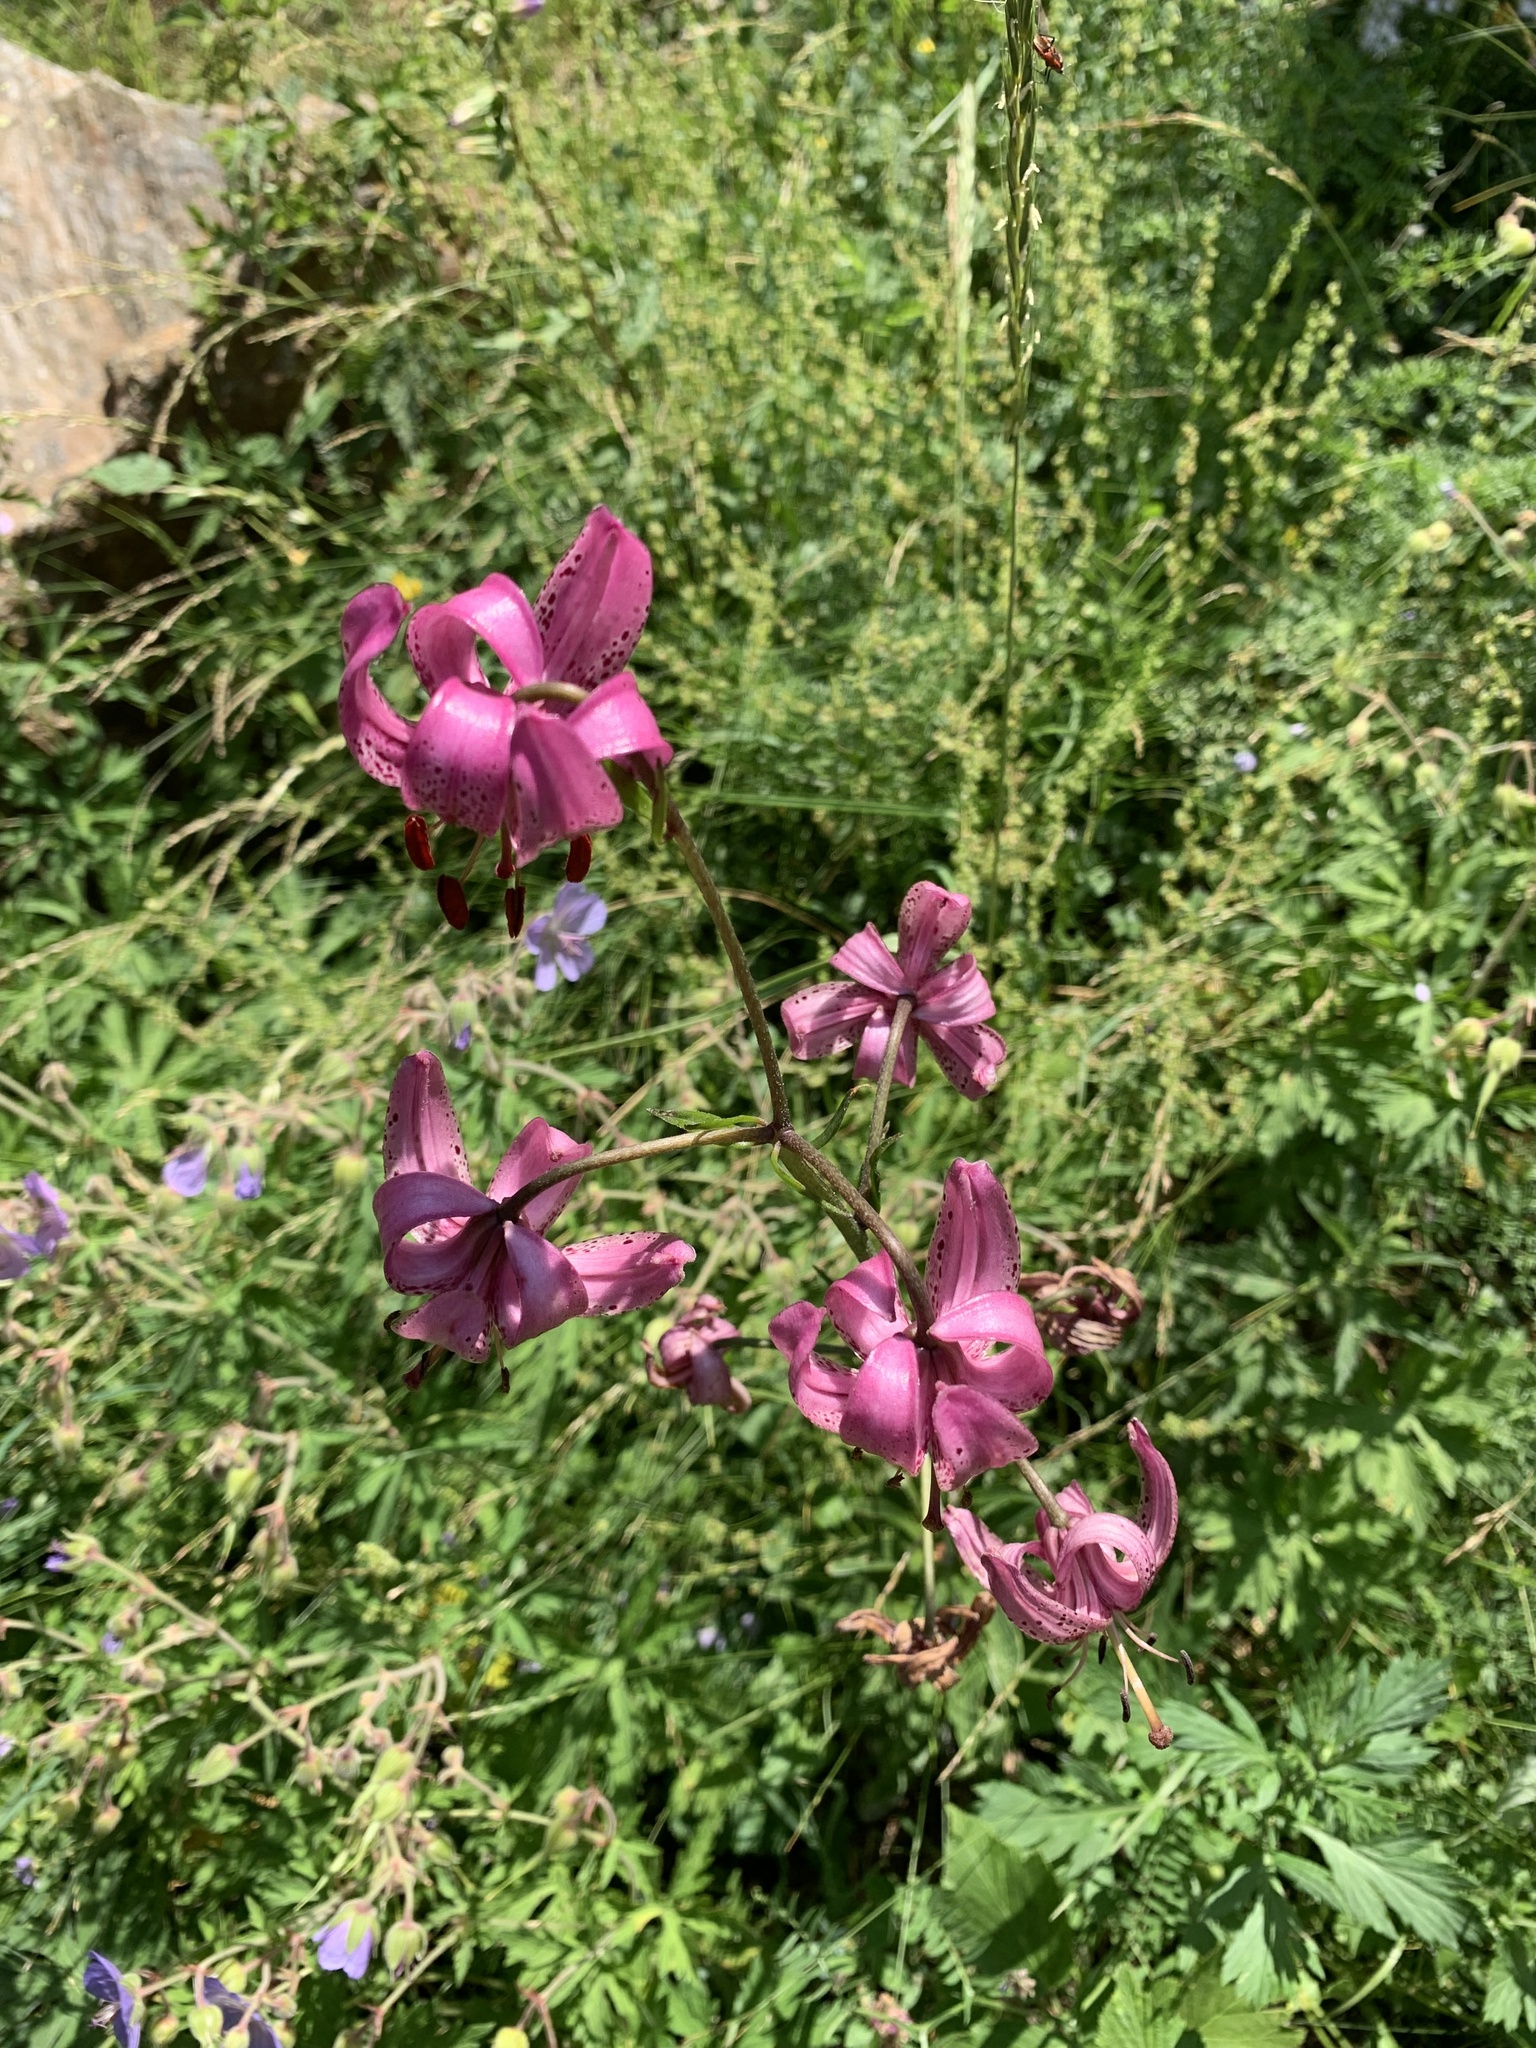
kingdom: Plantae
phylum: Tracheophyta
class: Liliopsida
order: Liliales
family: Liliaceae
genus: Lilium
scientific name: Lilium martagon
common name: Martagon lily
